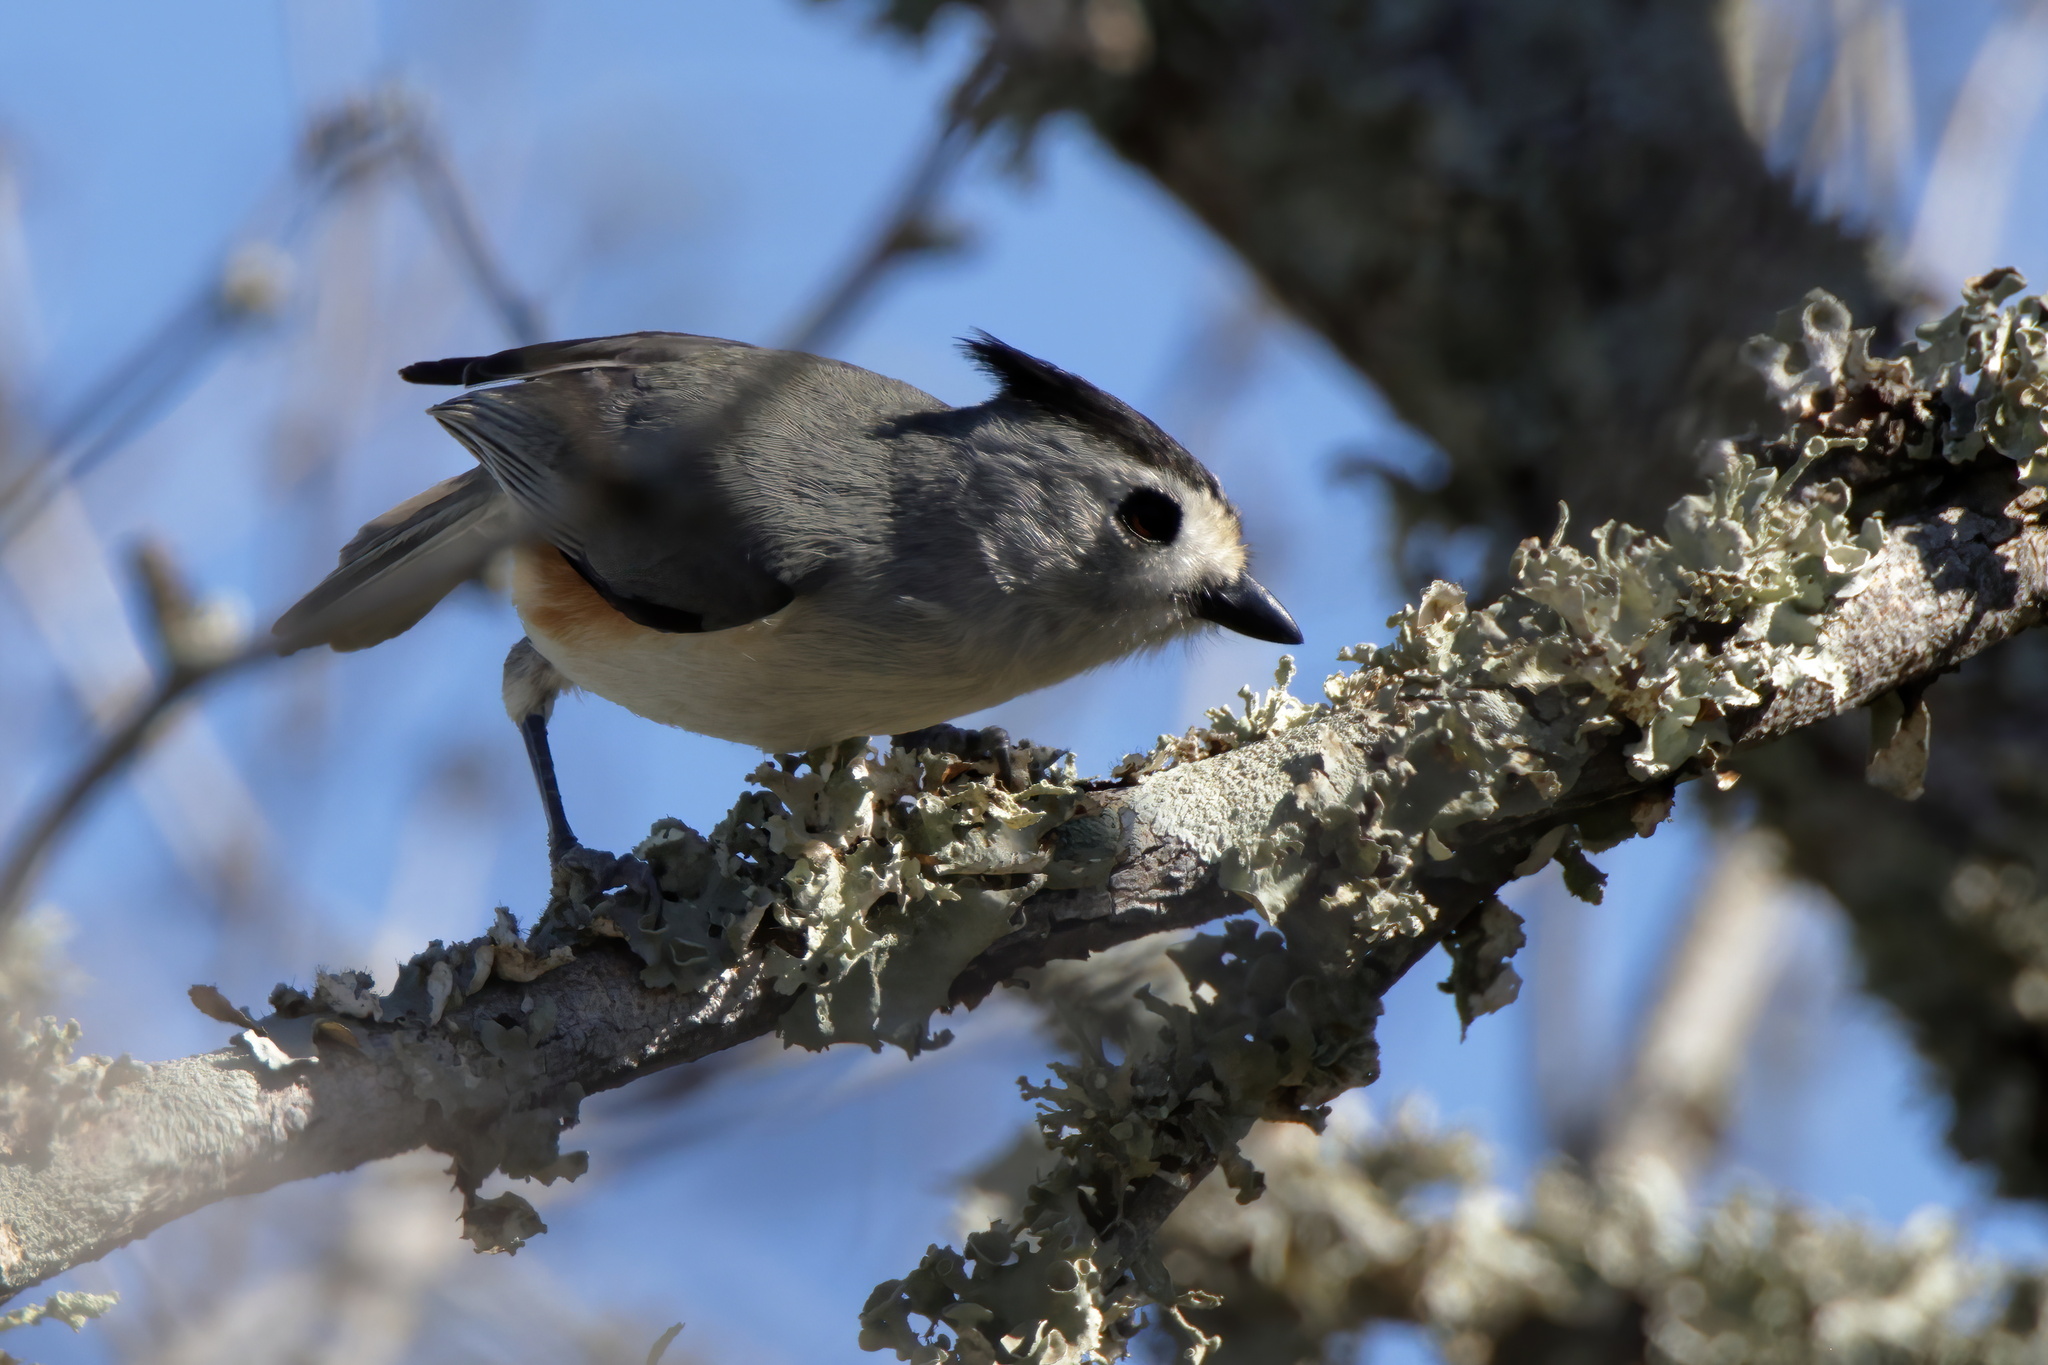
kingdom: Animalia
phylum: Chordata
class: Aves
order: Passeriformes
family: Paridae
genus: Baeolophus
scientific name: Baeolophus atricristatus
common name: Black-crested titmouse
